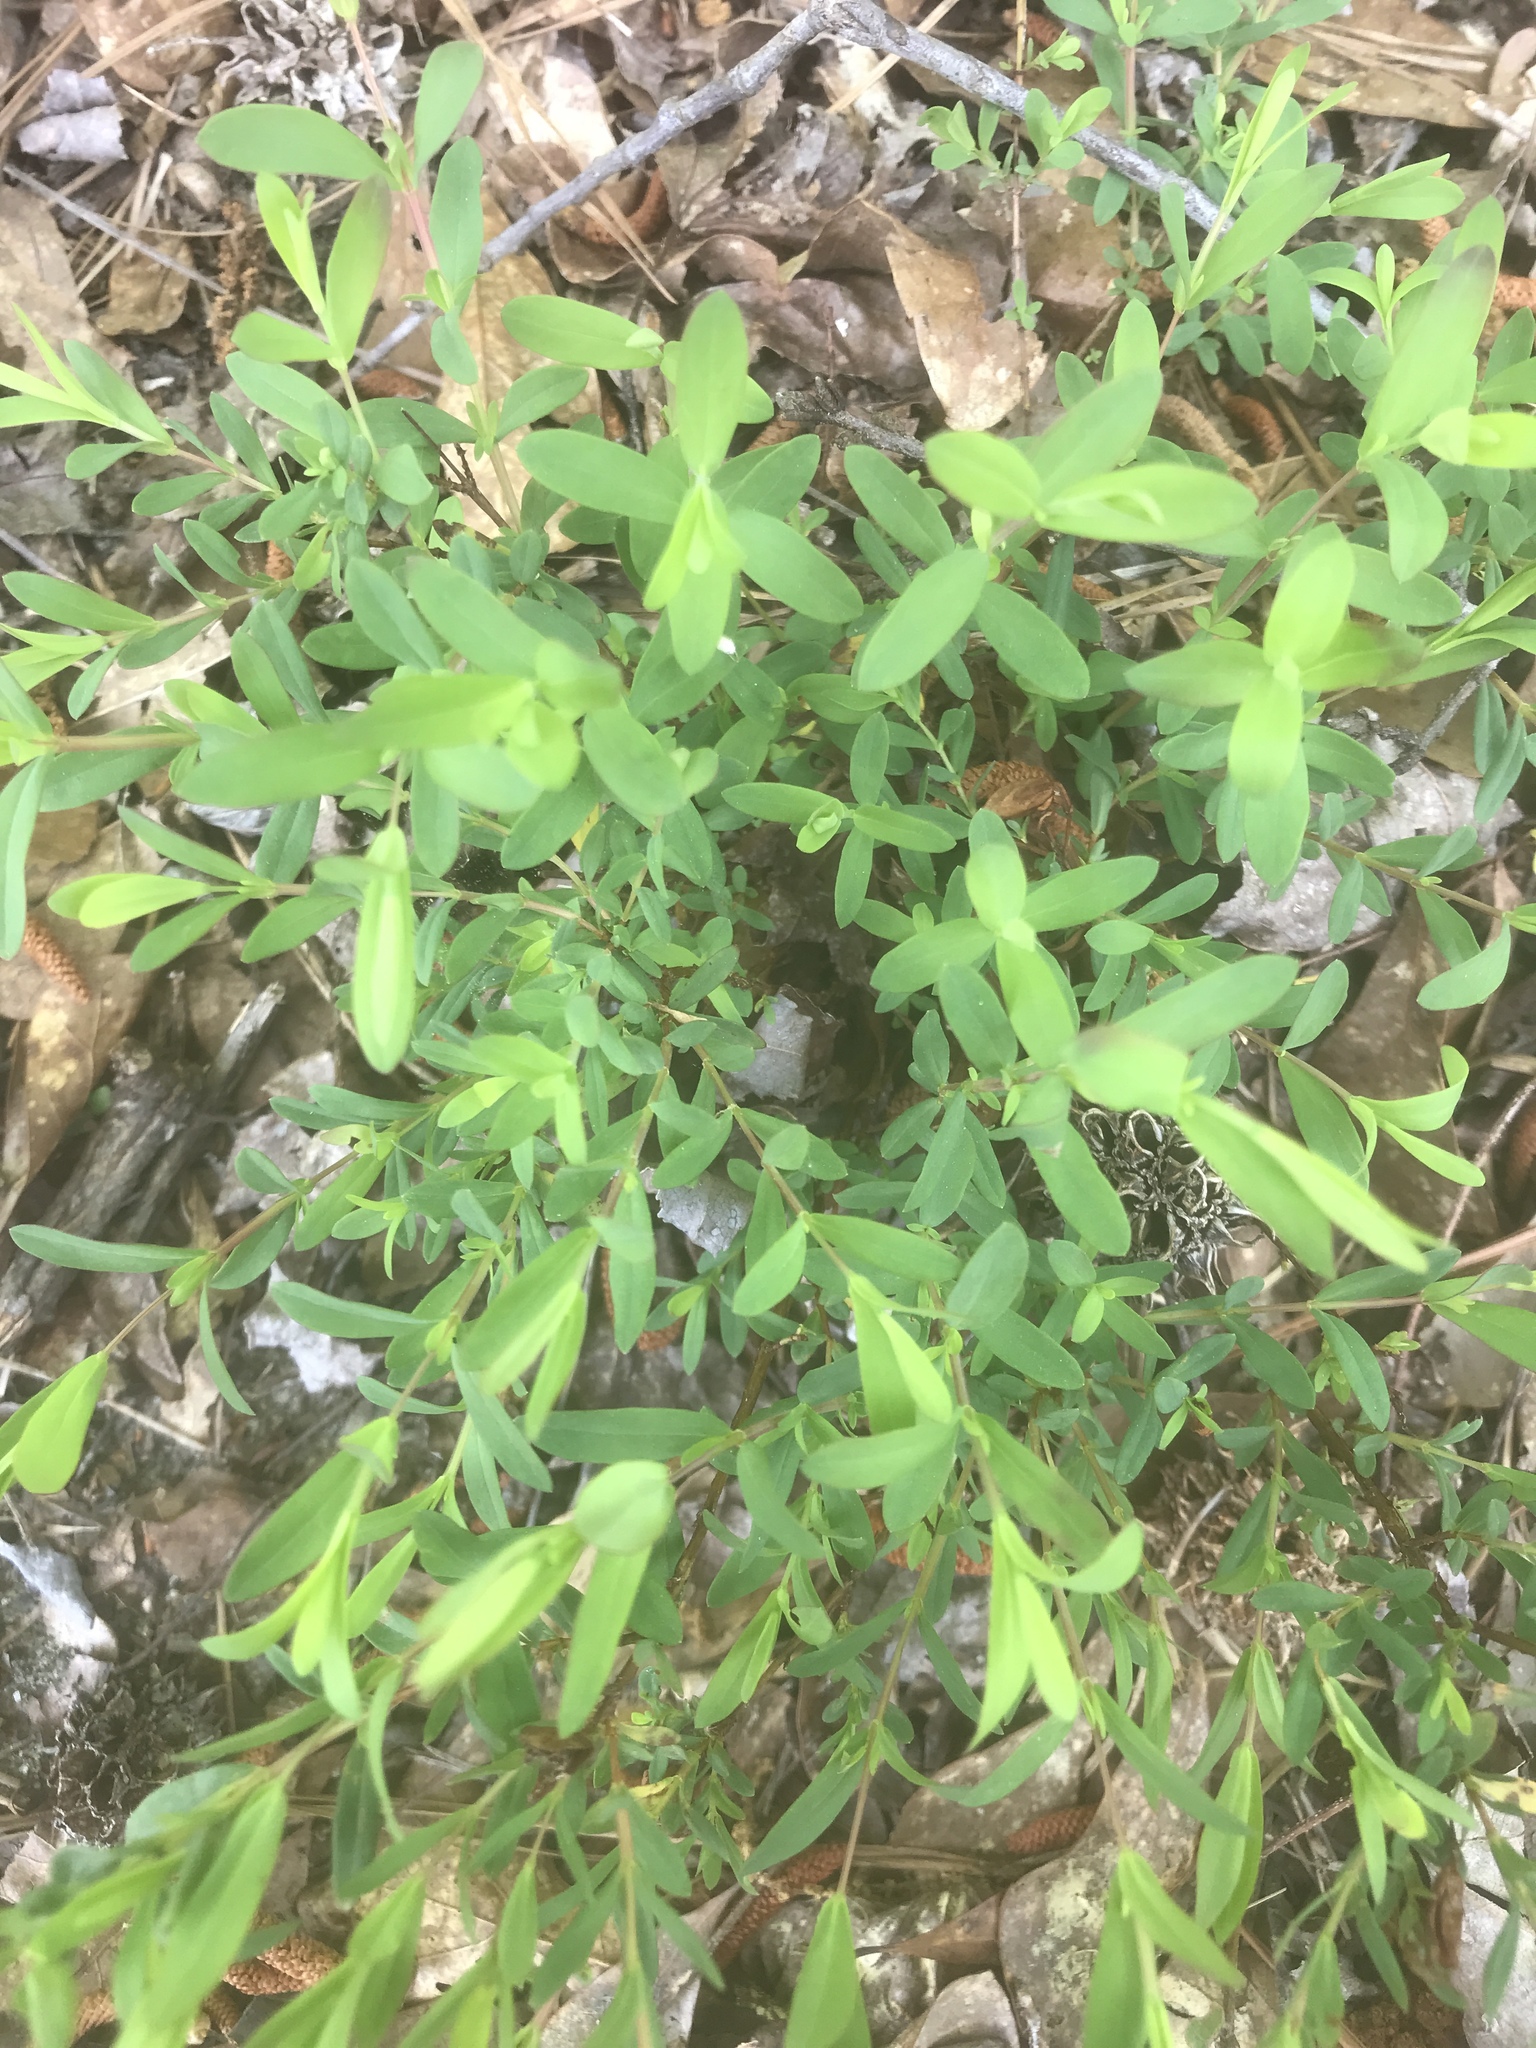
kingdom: Plantae
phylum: Tracheophyta
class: Magnoliopsida
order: Malpighiales
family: Hypericaceae
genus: Hypericum
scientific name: Hypericum hypericoides
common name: St. andrew's cross
